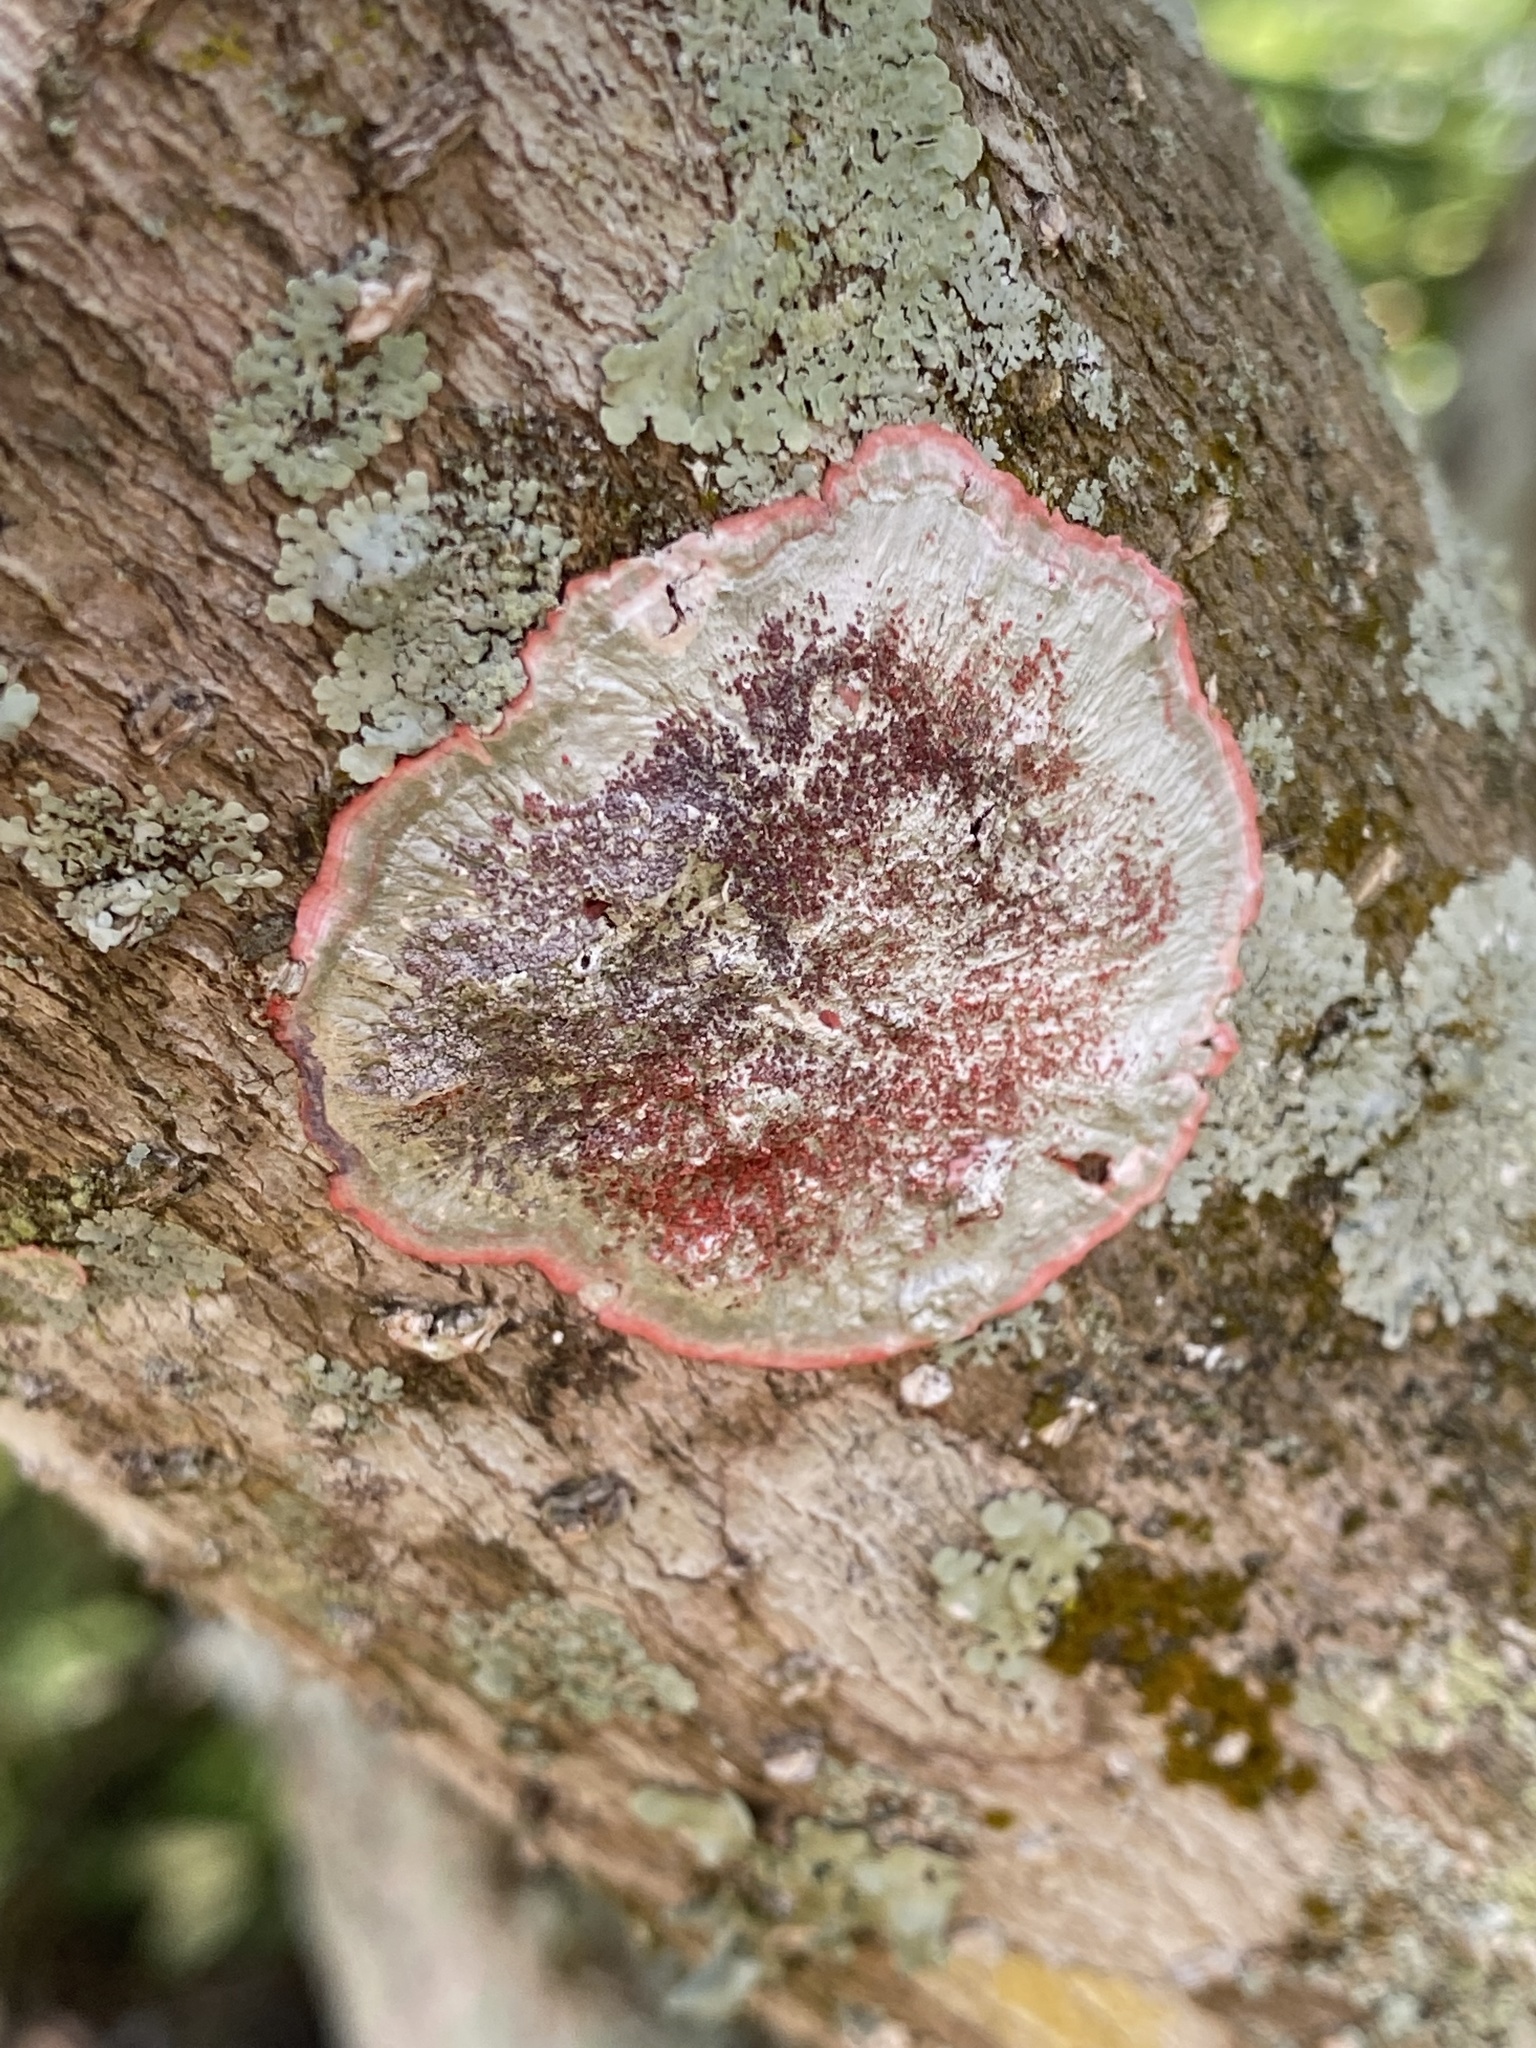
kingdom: Fungi
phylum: Ascomycota
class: Arthoniomycetes
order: Arthoniales
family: Arthoniaceae
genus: Herpothallon
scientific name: Herpothallon rubrocinctum
